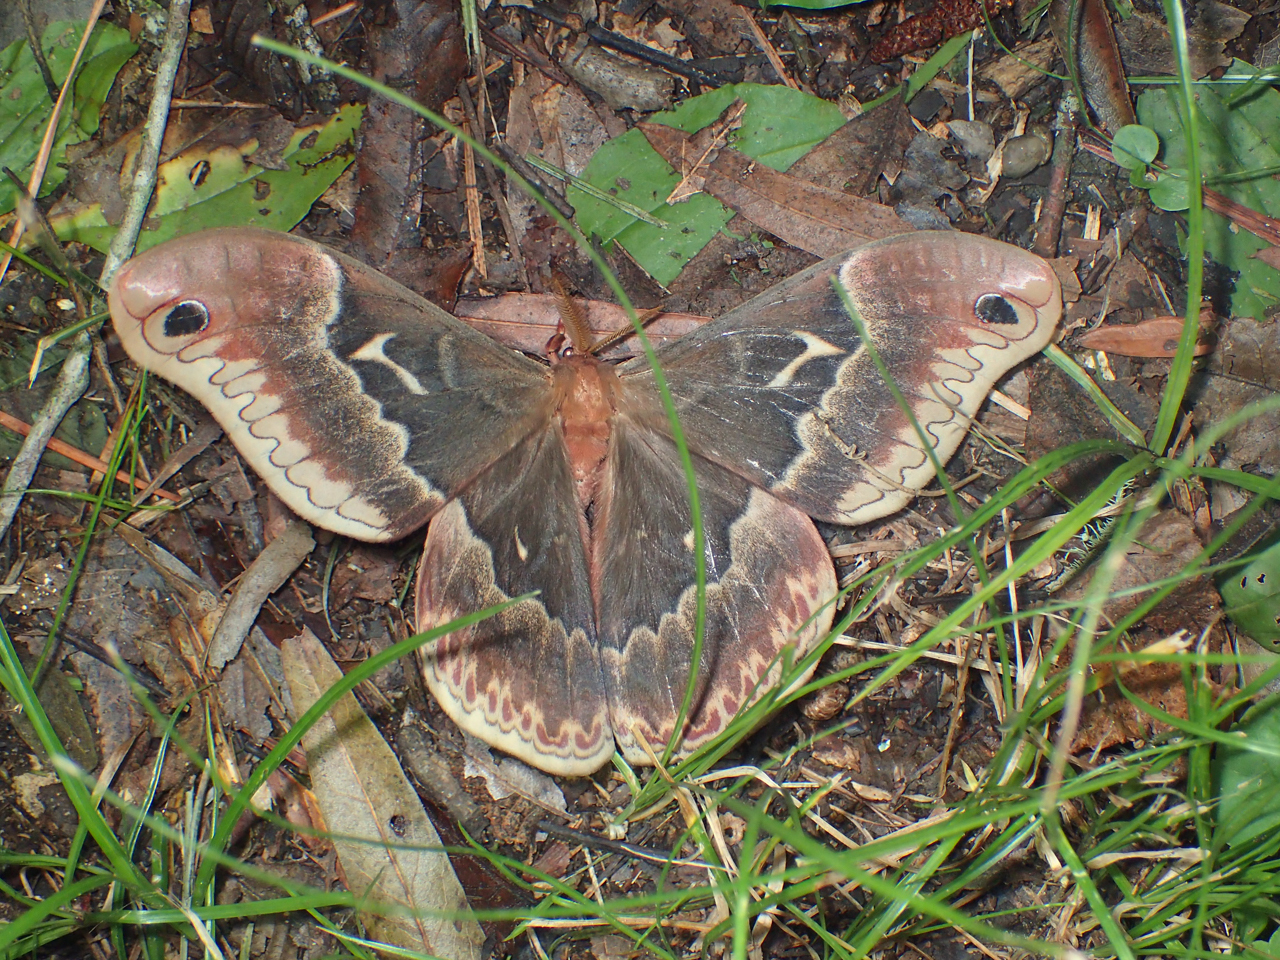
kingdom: Animalia
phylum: Arthropoda
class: Insecta
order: Lepidoptera
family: Saturniidae
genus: Callosamia
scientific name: Callosamia angulifera
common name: Tulip tree silkmoth
